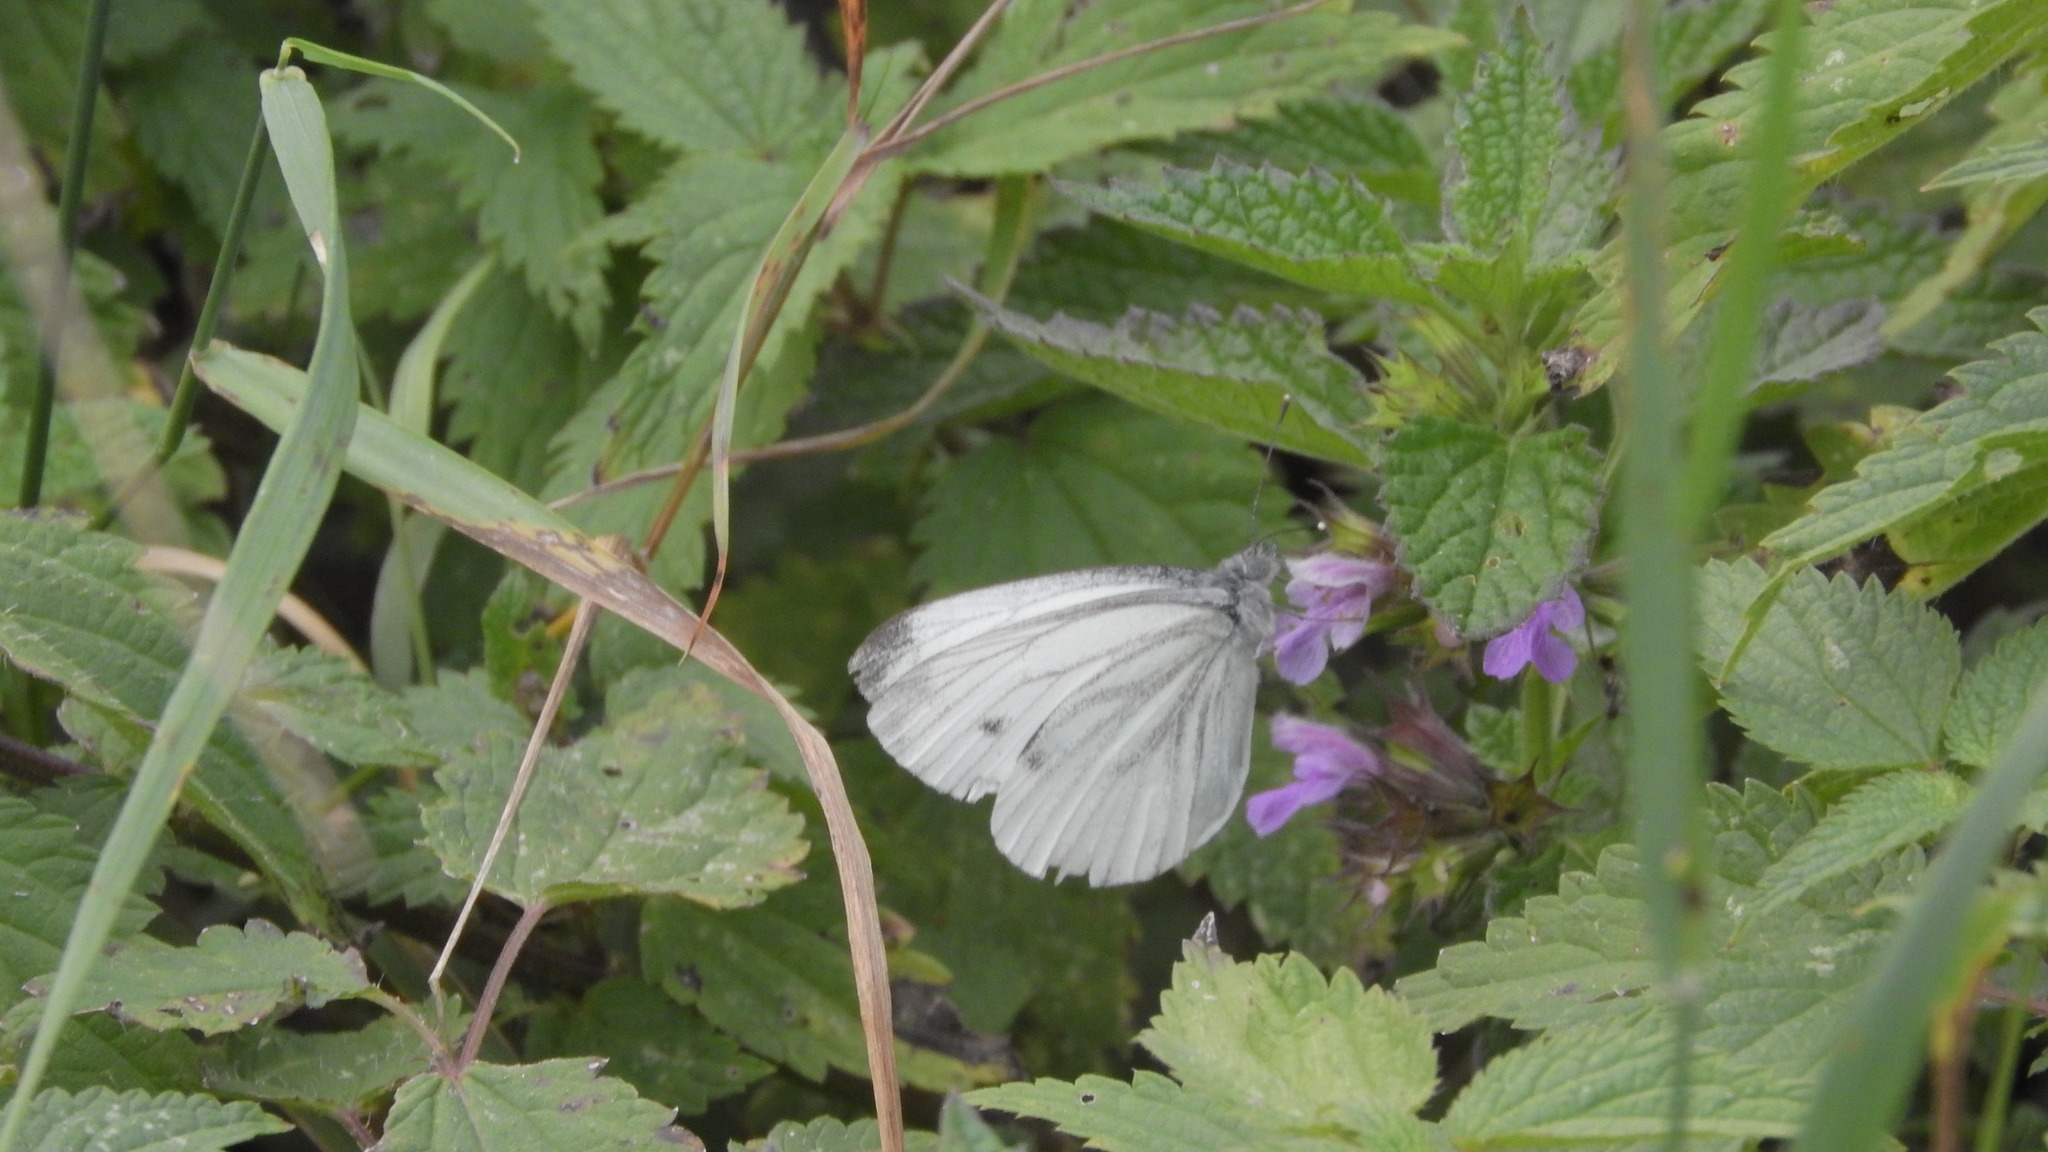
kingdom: Animalia
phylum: Arthropoda
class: Insecta
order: Lepidoptera
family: Pieridae
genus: Pieris
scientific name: Pieris napi
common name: Green-veined white
